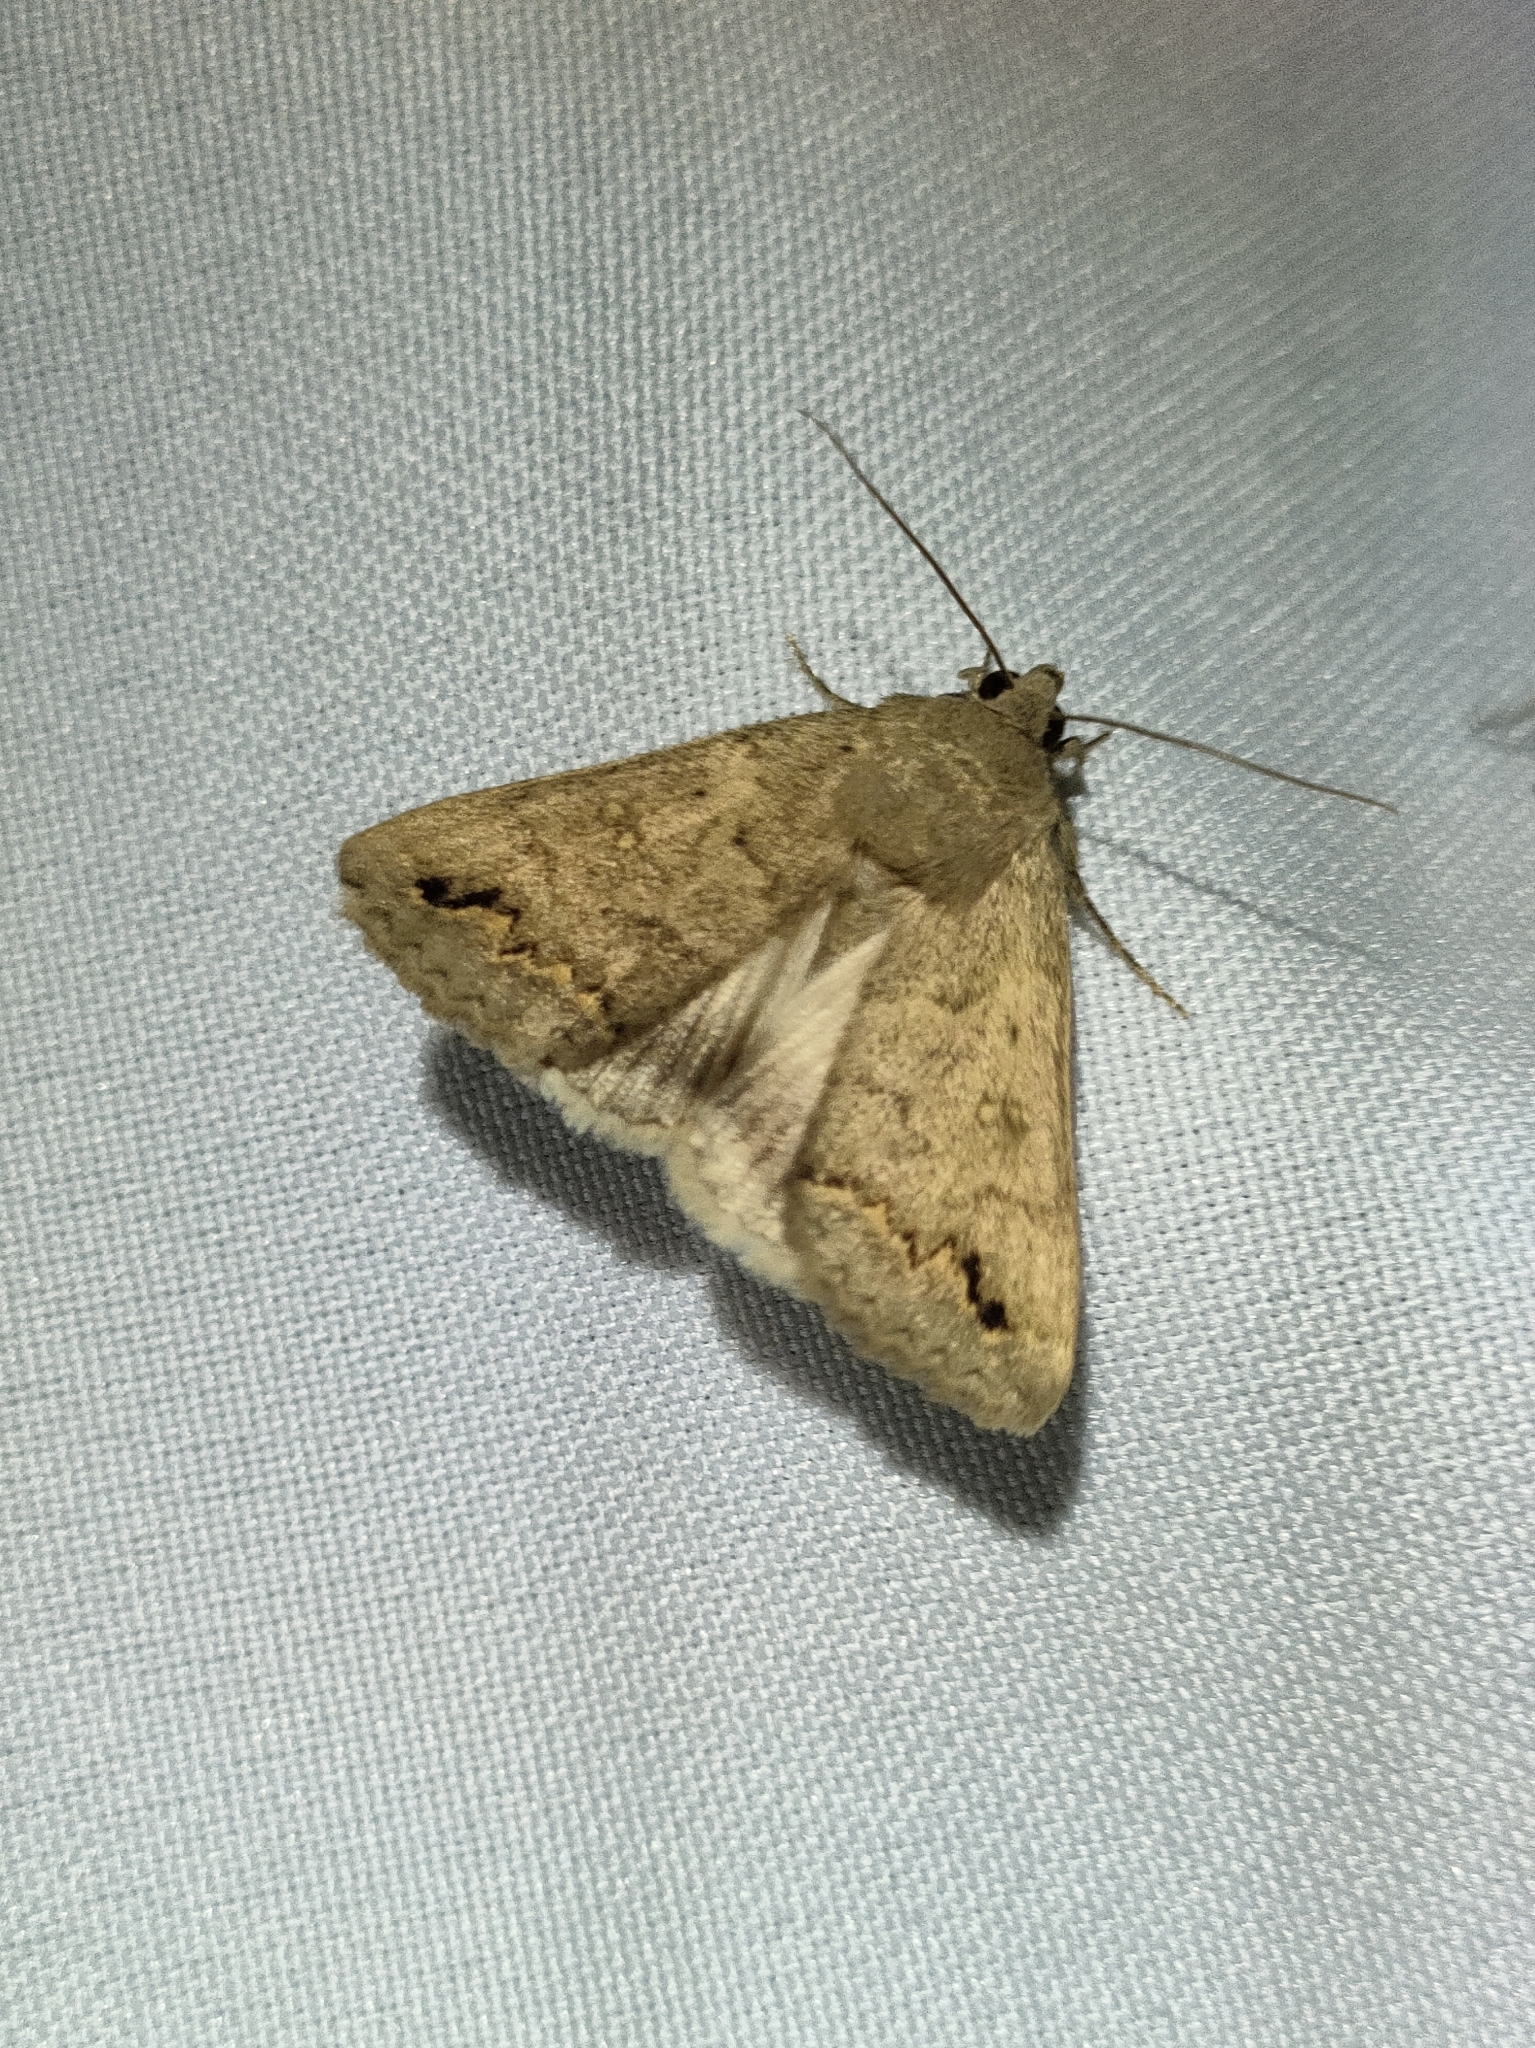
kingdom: Animalia
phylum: Arthropoda
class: Insecta
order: Lepidoptera
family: Erebidae
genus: Clytie
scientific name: Clytie illunaris
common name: Trent double-stripe
